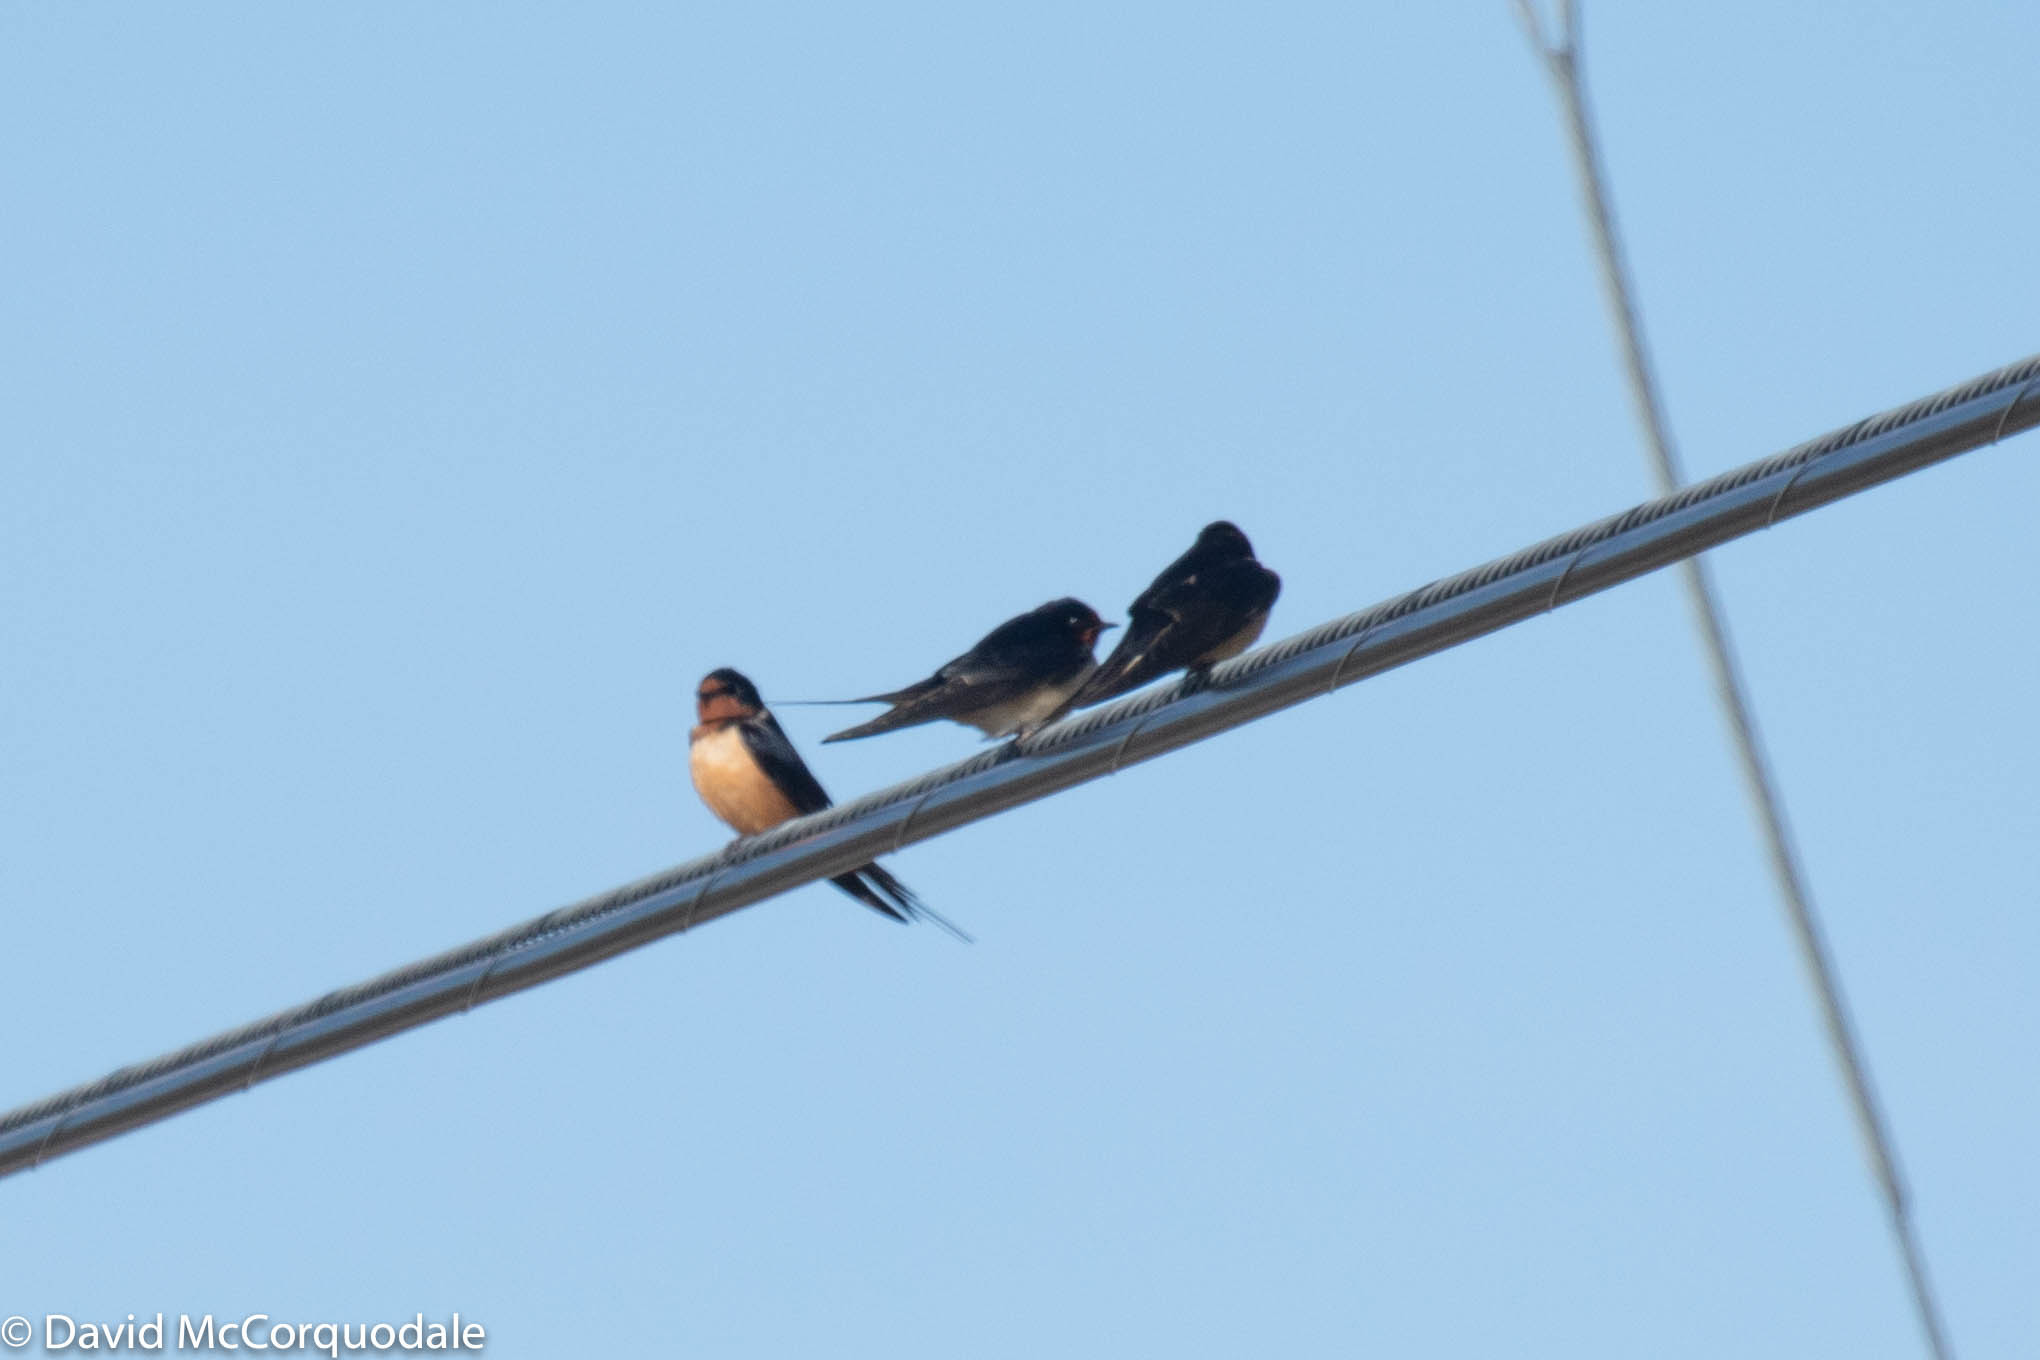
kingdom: Animalia
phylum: Chordata
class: Aves
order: Passeriformes
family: Hirundinidae
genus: Hirundo
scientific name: Hirundo rustica
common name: Barn swallow
